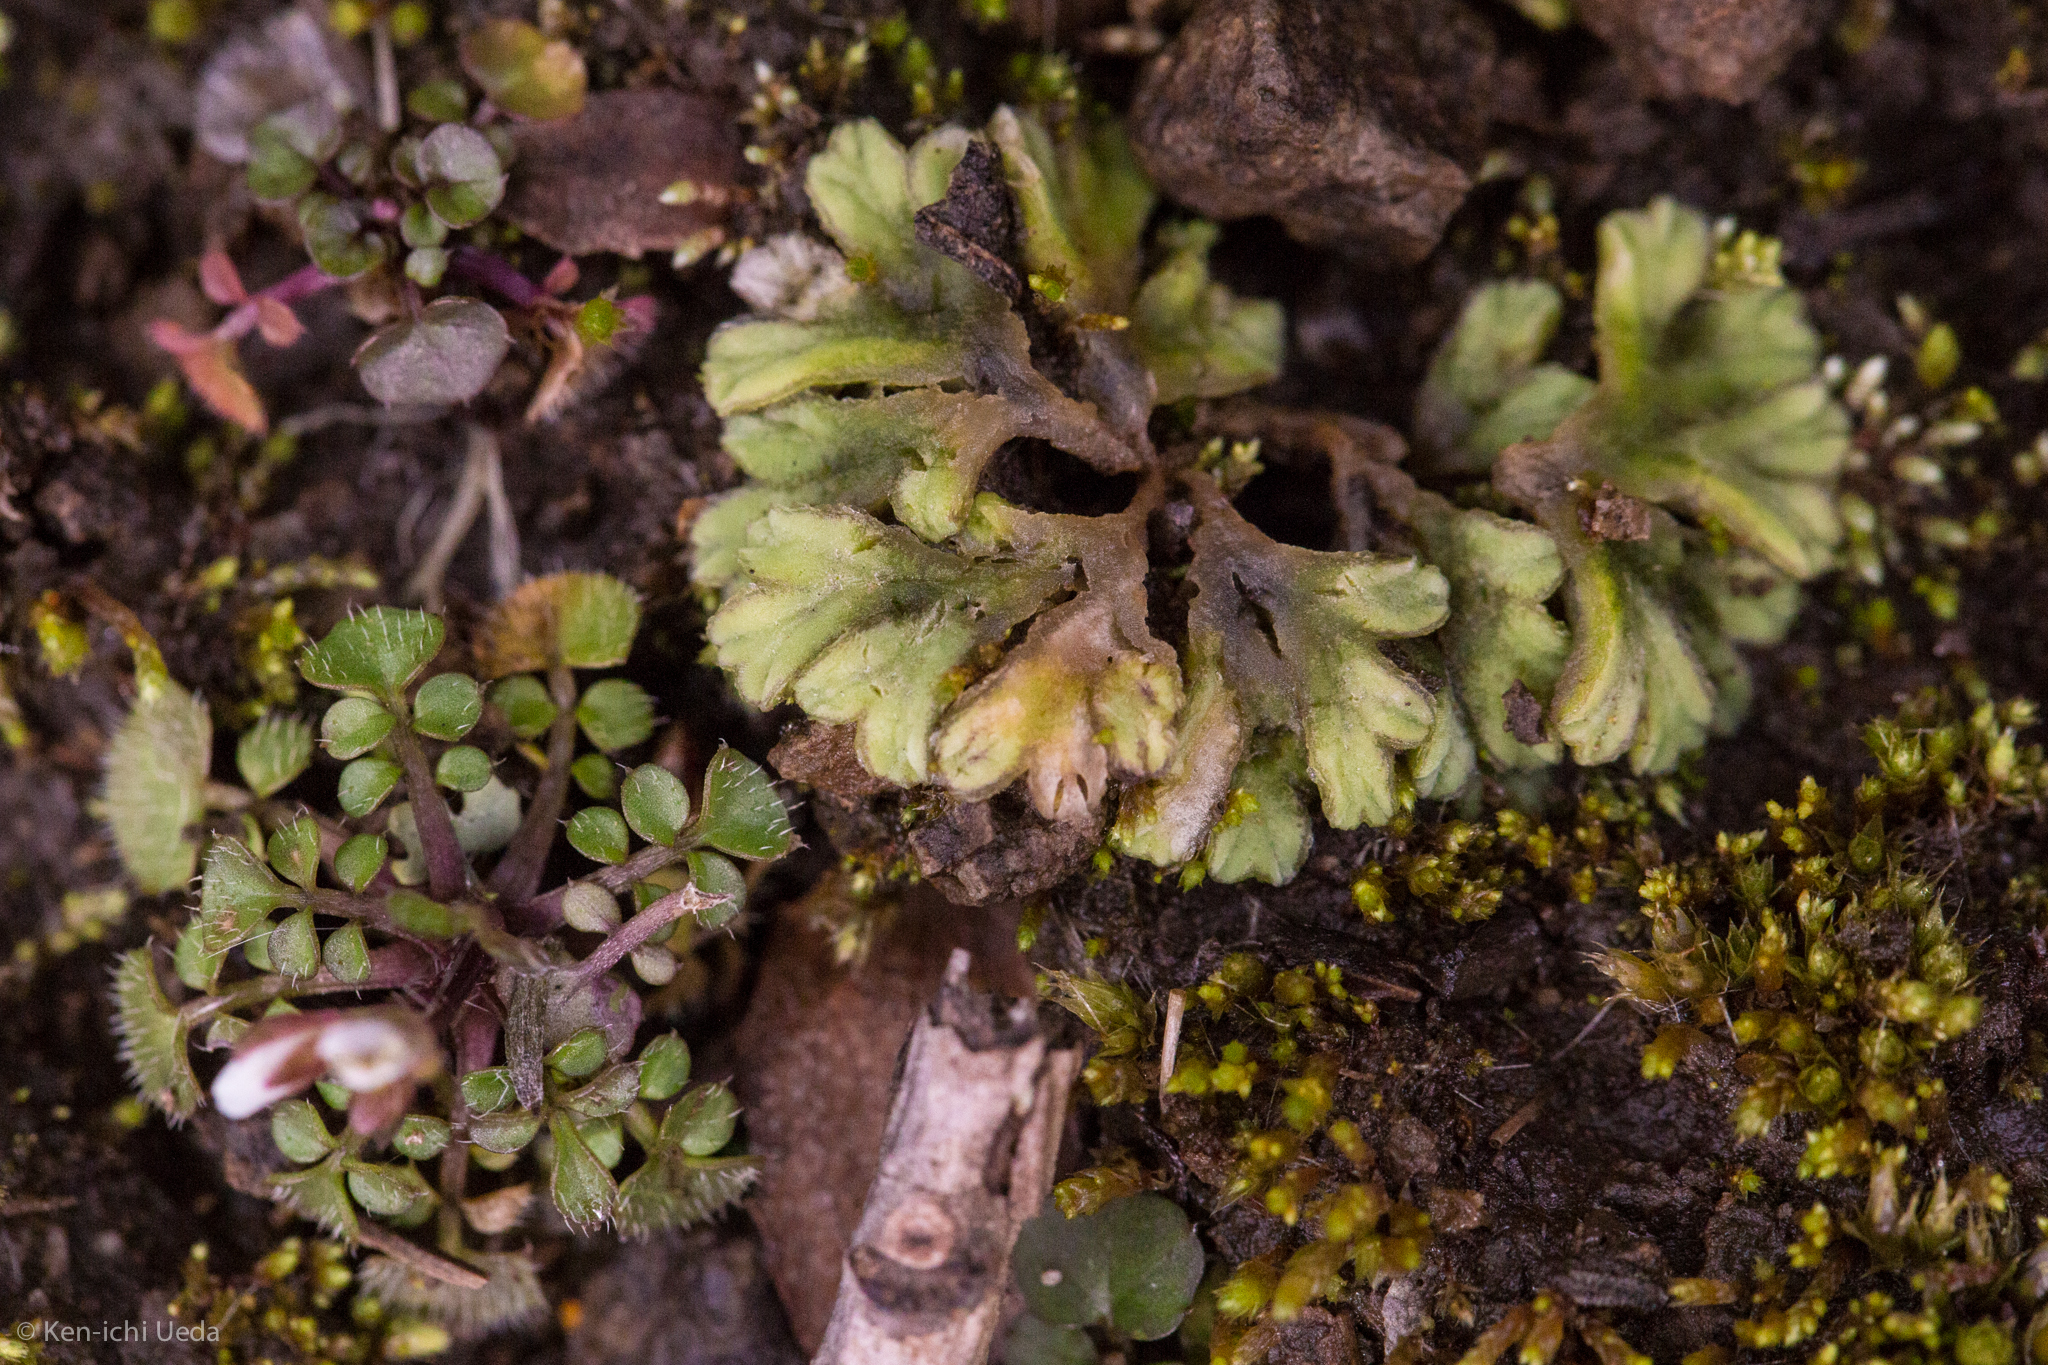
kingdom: Plantae
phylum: Marchantiophyta
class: Marchantiopsida
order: Marchantiales
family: Ricciaceae
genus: Riccia
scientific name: Riccia lamellosa
